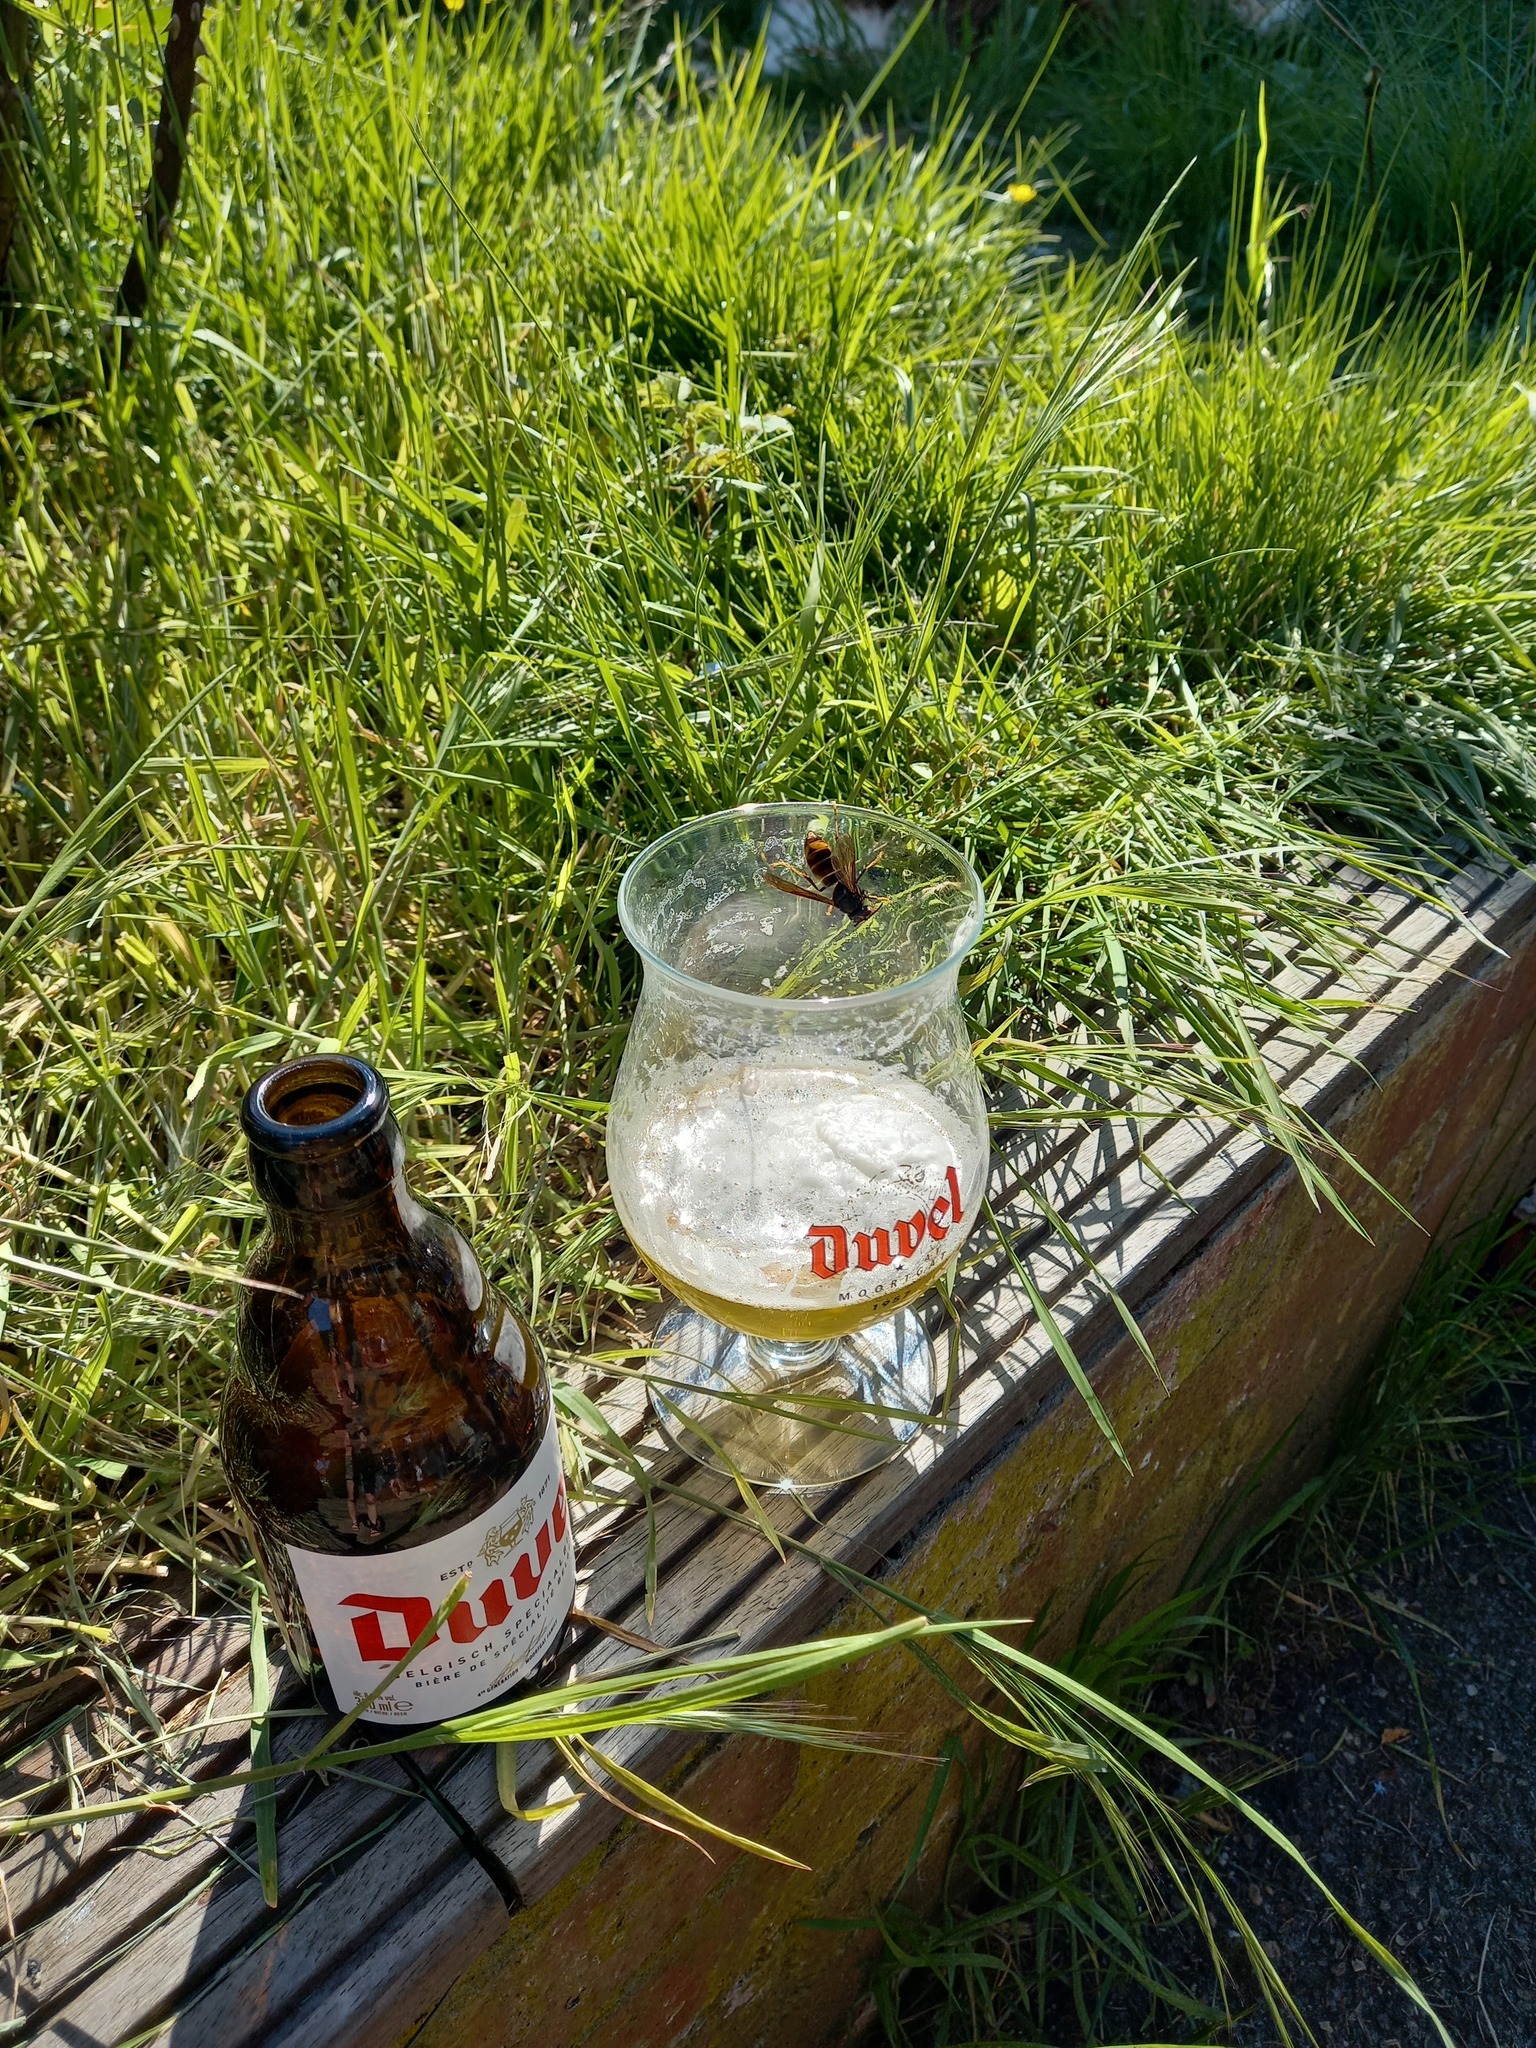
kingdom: Animalia
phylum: Arthropoda
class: Insecta
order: Hymenoptera
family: Vespidae
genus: Vespa
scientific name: Vespa velutina
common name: Asian hornet
